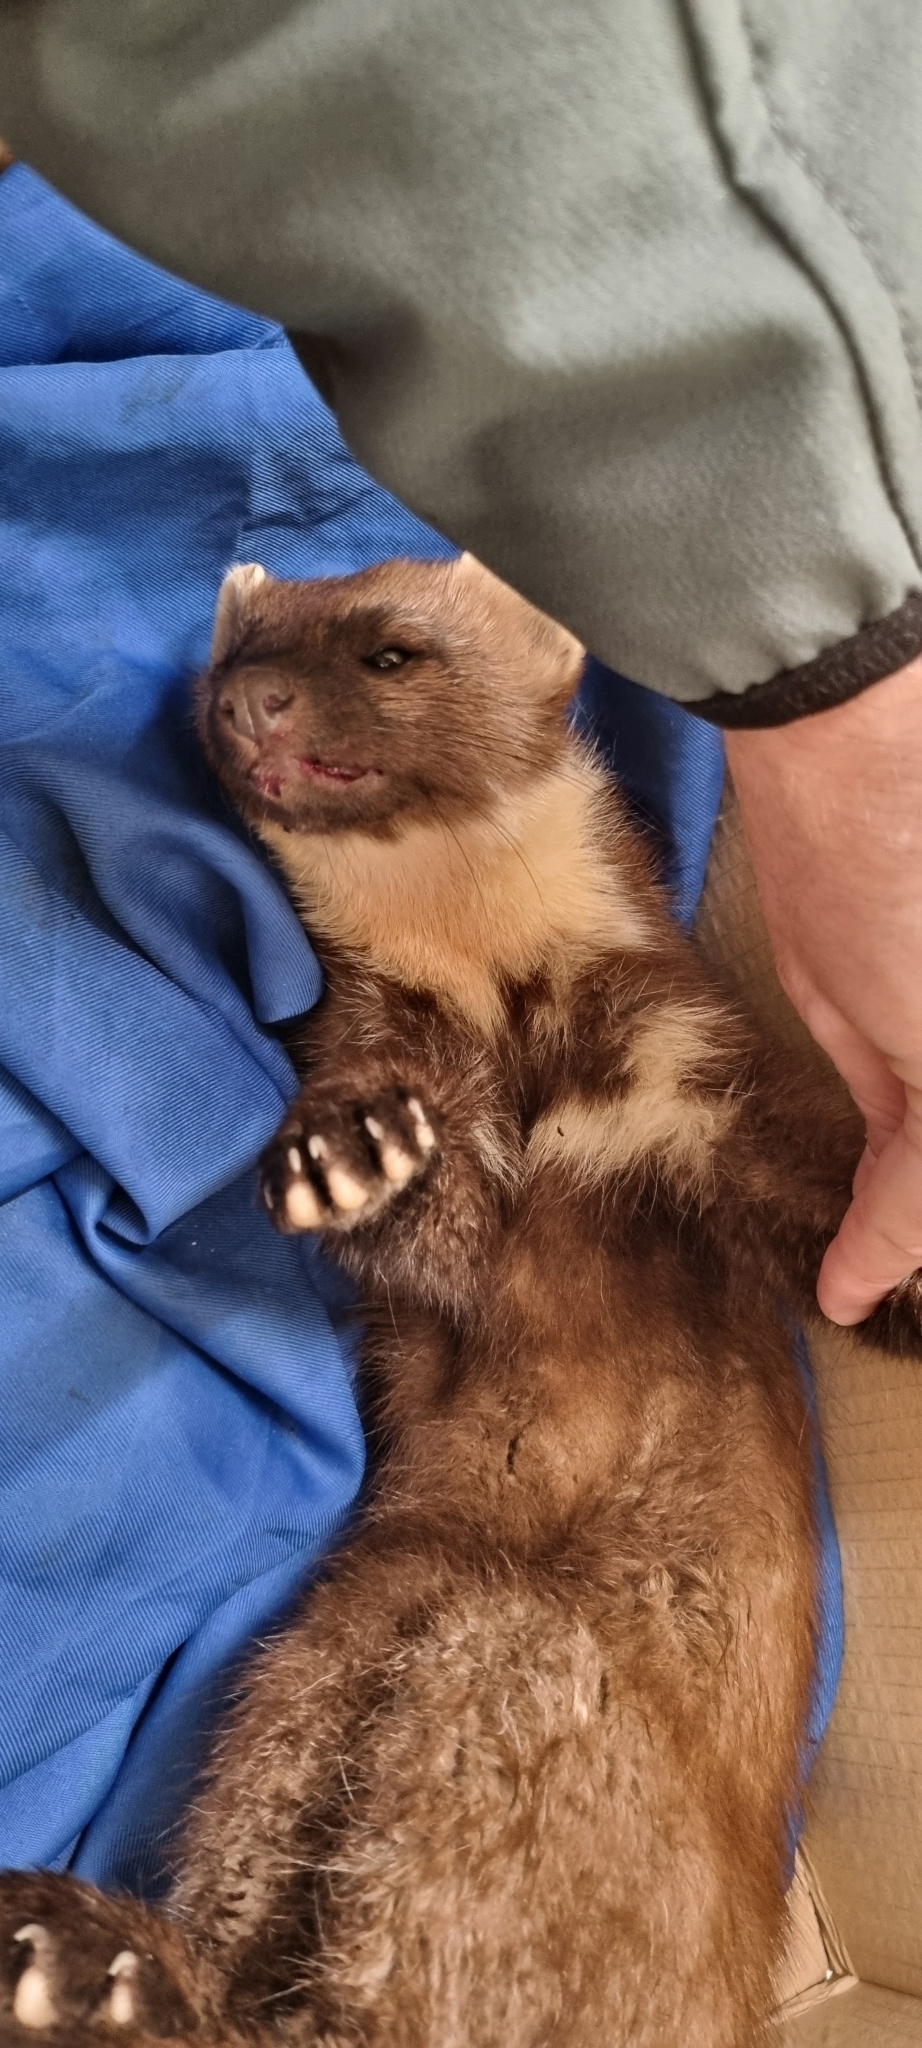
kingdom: Animalia
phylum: Chordata
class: Mammalia
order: Carnivora
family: Mustelidae
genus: Martes
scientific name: Martes martes
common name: European pine marten
